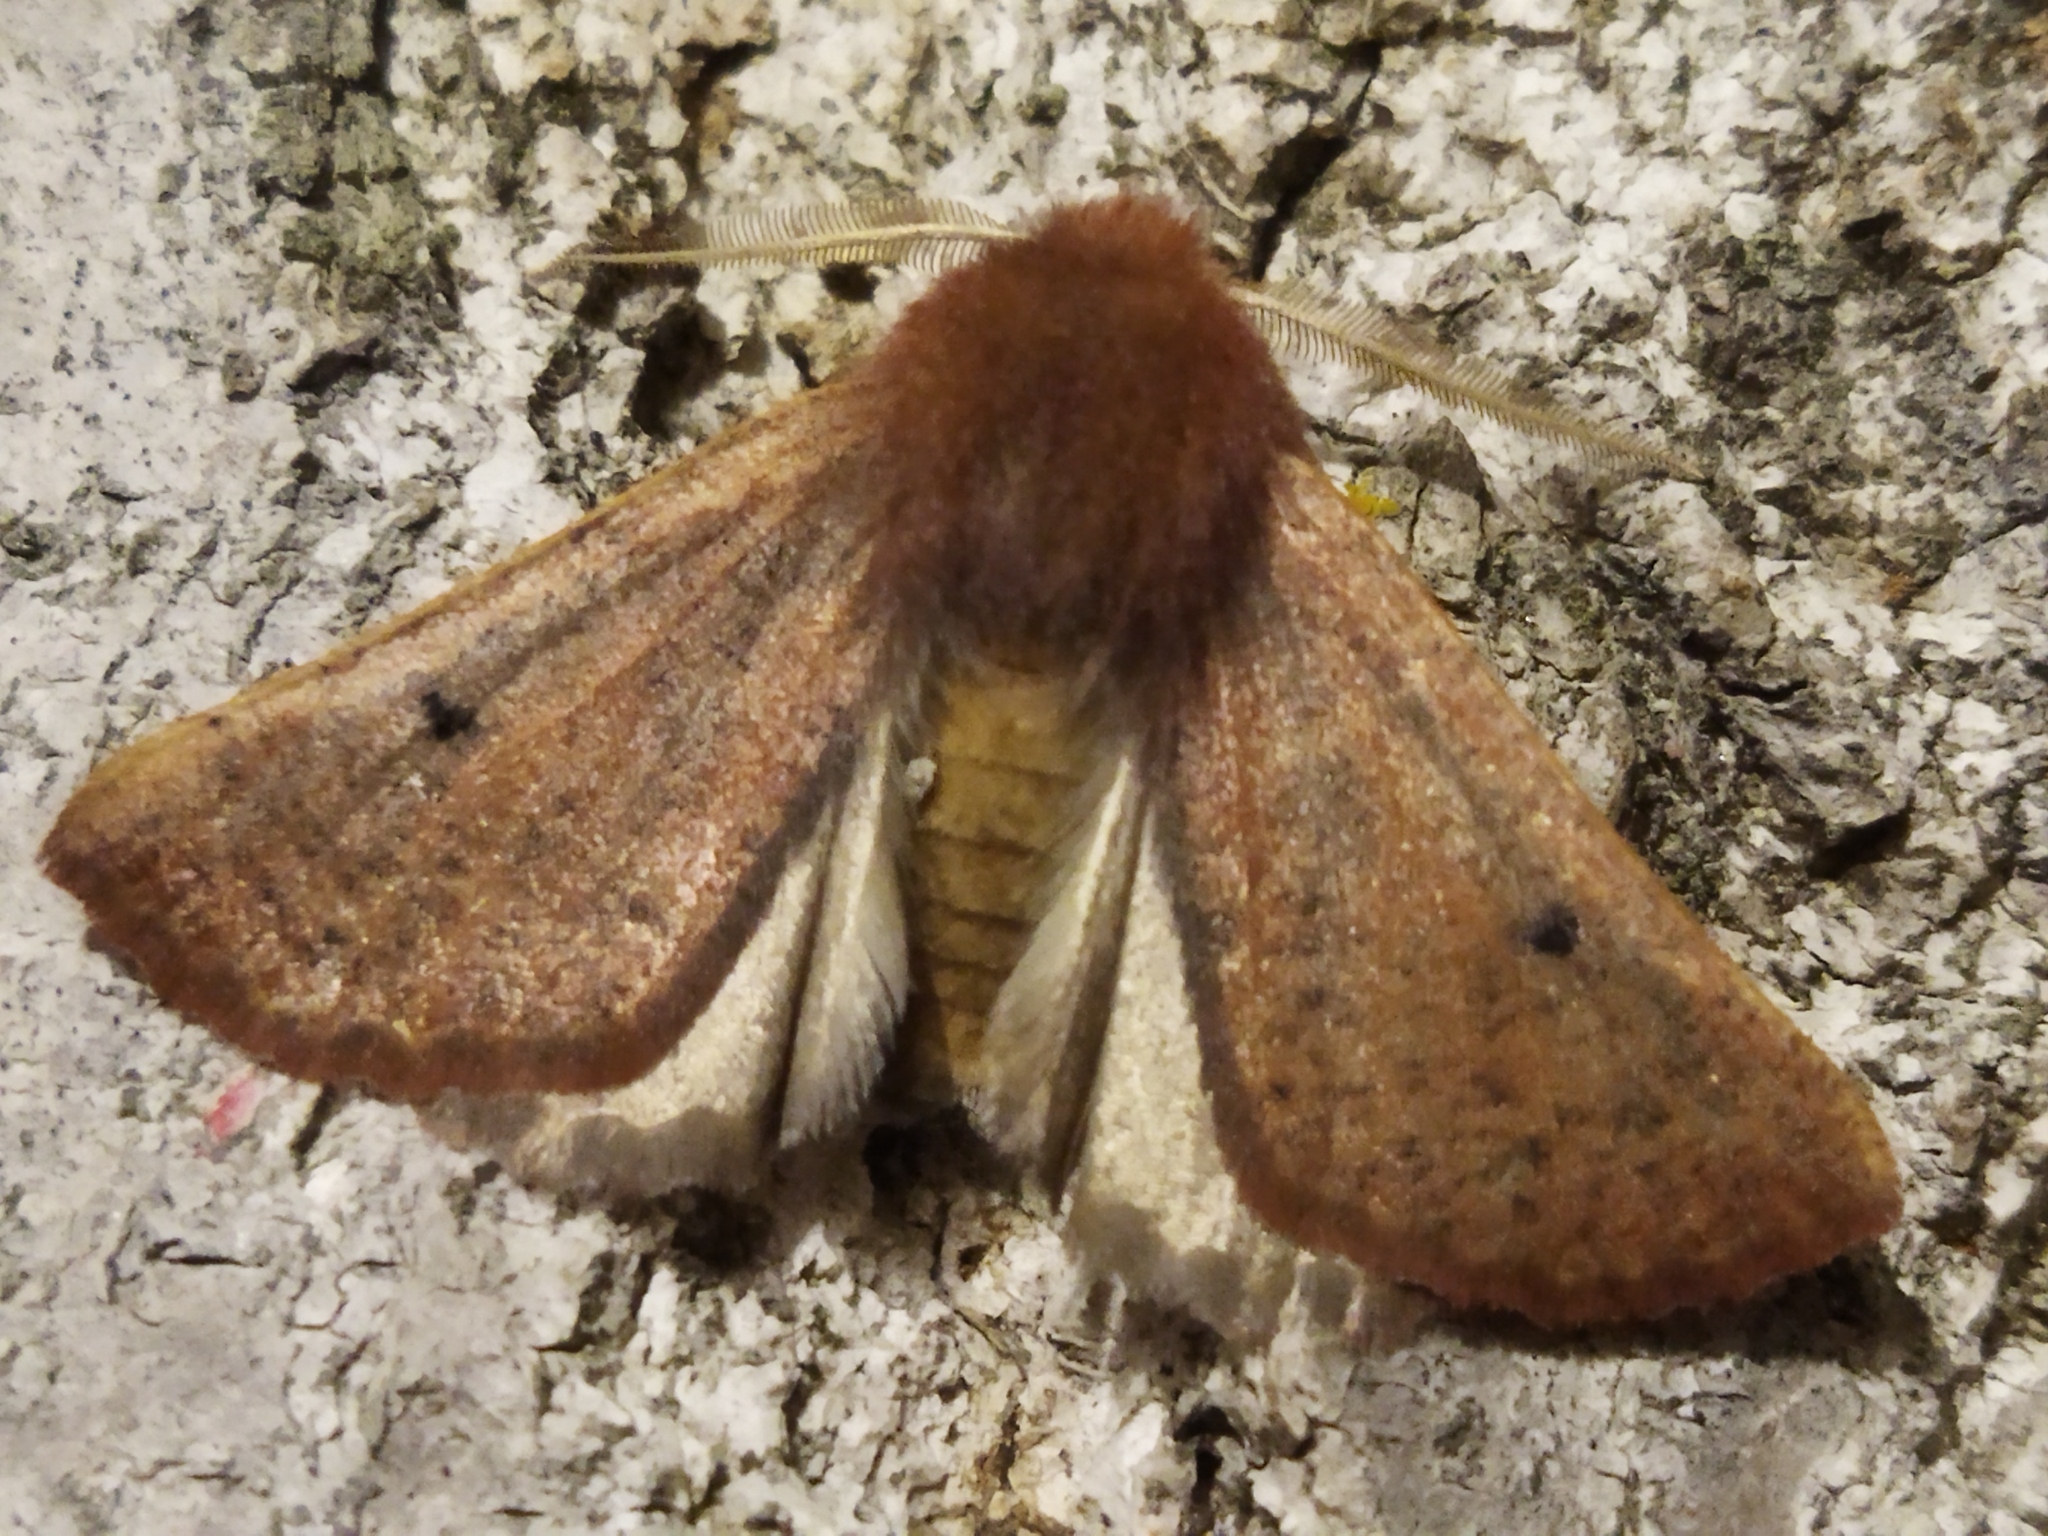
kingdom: Animalia
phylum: Arthropoda
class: Insecta
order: Lepidoptera
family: Geometridae
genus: Dasycorsa
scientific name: Dasycorsa modesta
